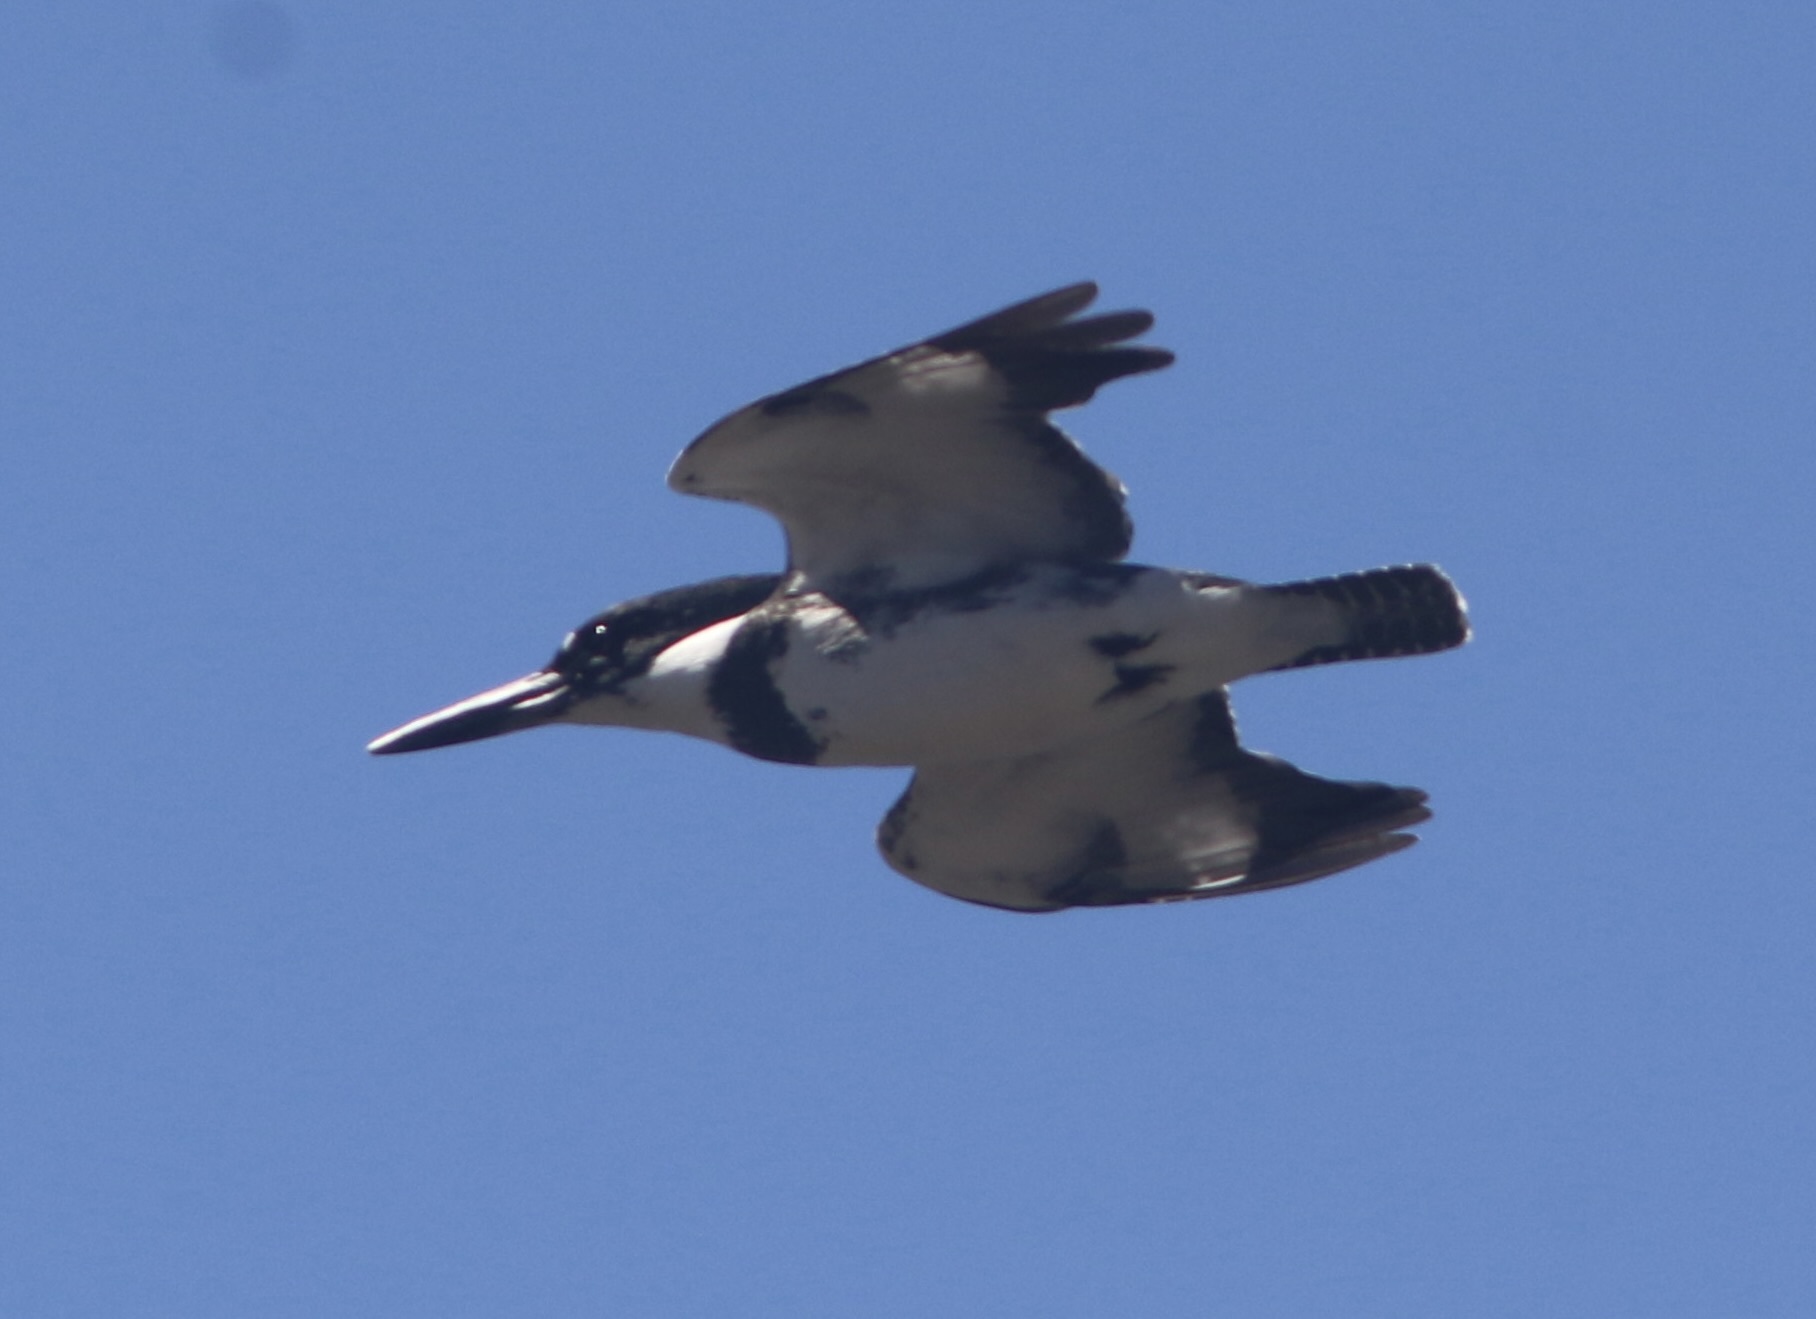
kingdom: Animalia
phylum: Chordata
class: Aves
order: Coraciiformes
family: Alcedinidae
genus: Megaceryle
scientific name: Megaceryle alcyon
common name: Belted kingfisher
